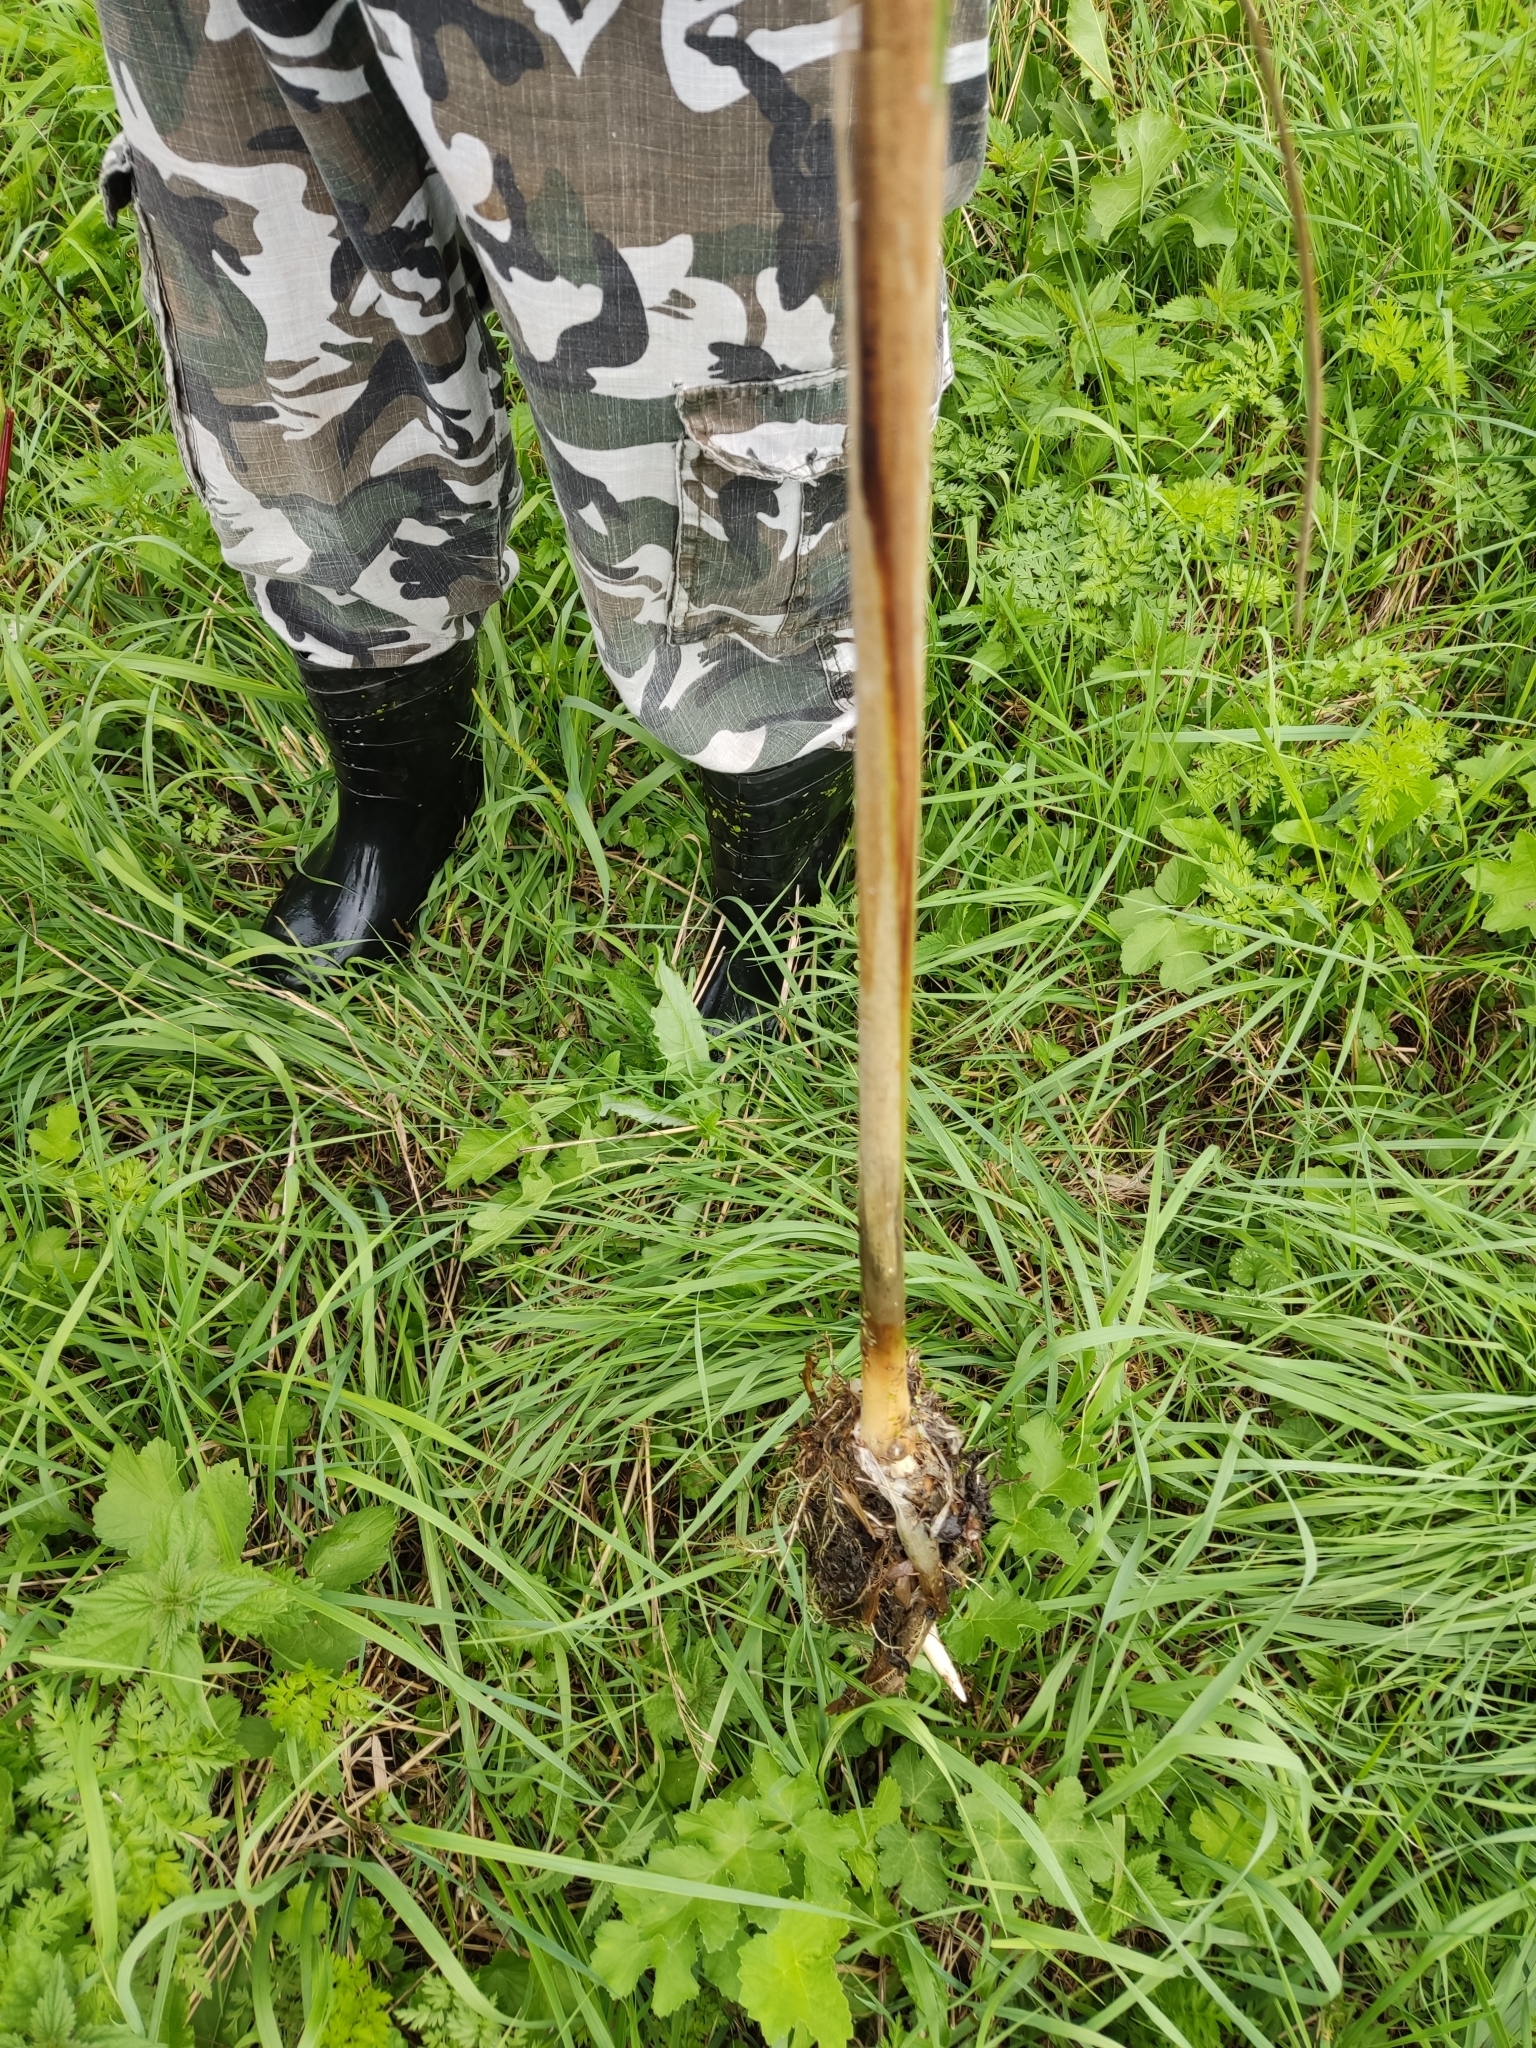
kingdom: Plantae
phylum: Tracheophyta
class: Liliopsida
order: Poales
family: Typhaceae
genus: Typha
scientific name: Typha angustifolia
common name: Lesser bulrush
